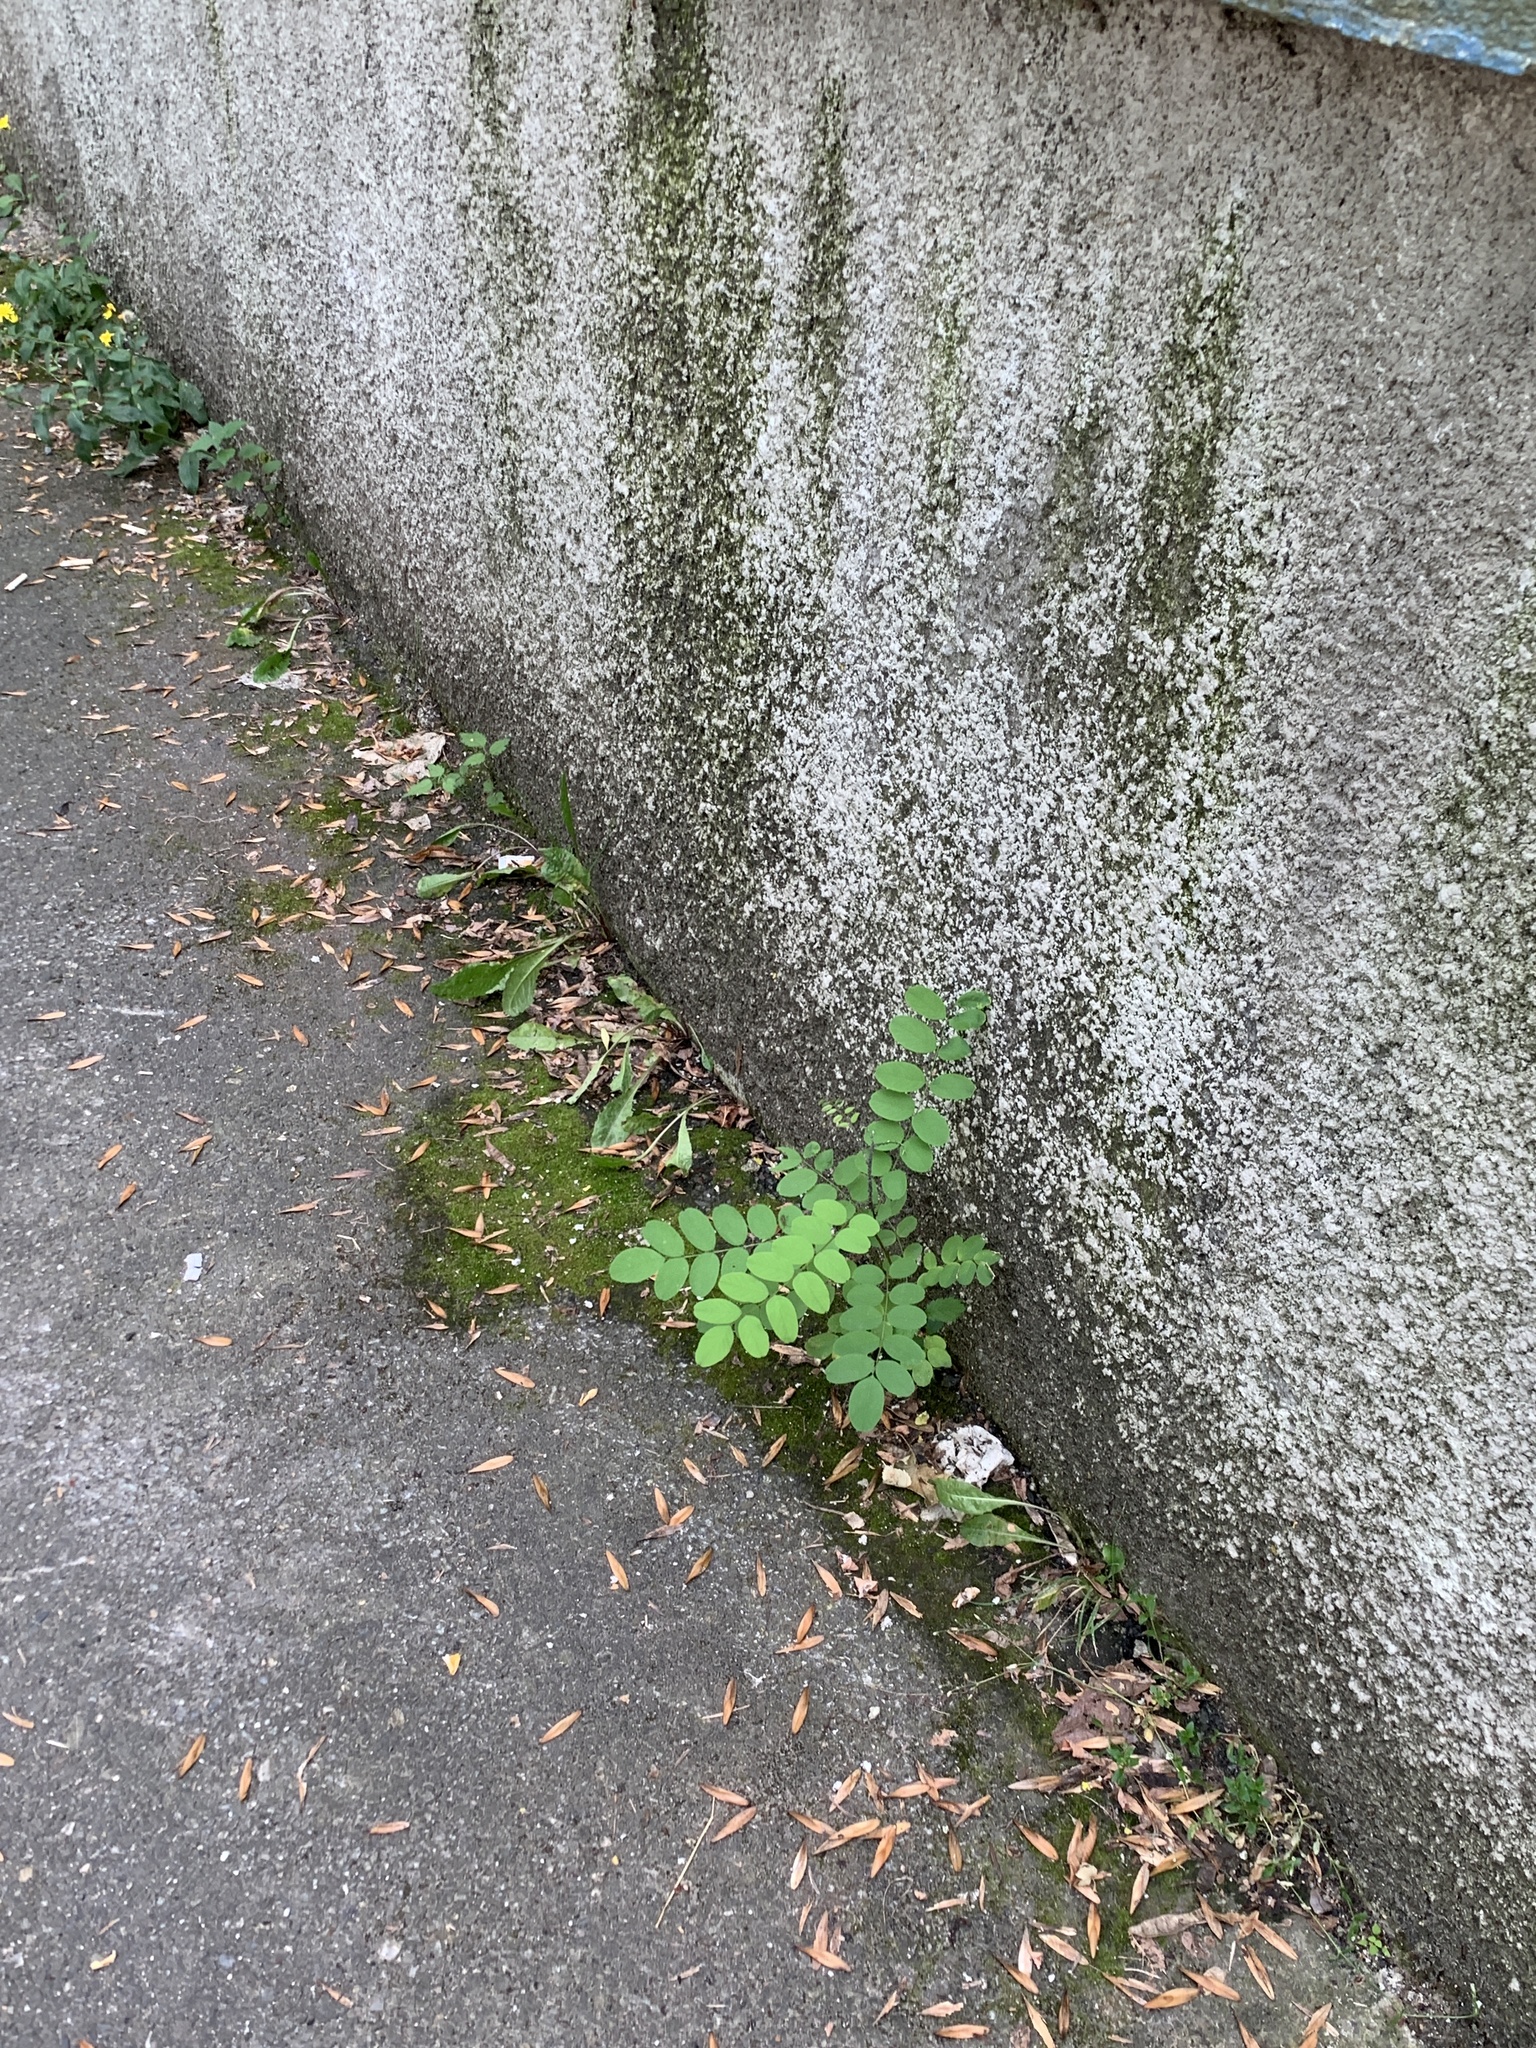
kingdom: Plantae
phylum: Tracheophyta
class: Magnoliopsida
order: Fabales
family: Fabaceae
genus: Robinia
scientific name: Robinia pseudoacacia
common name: Black locust
